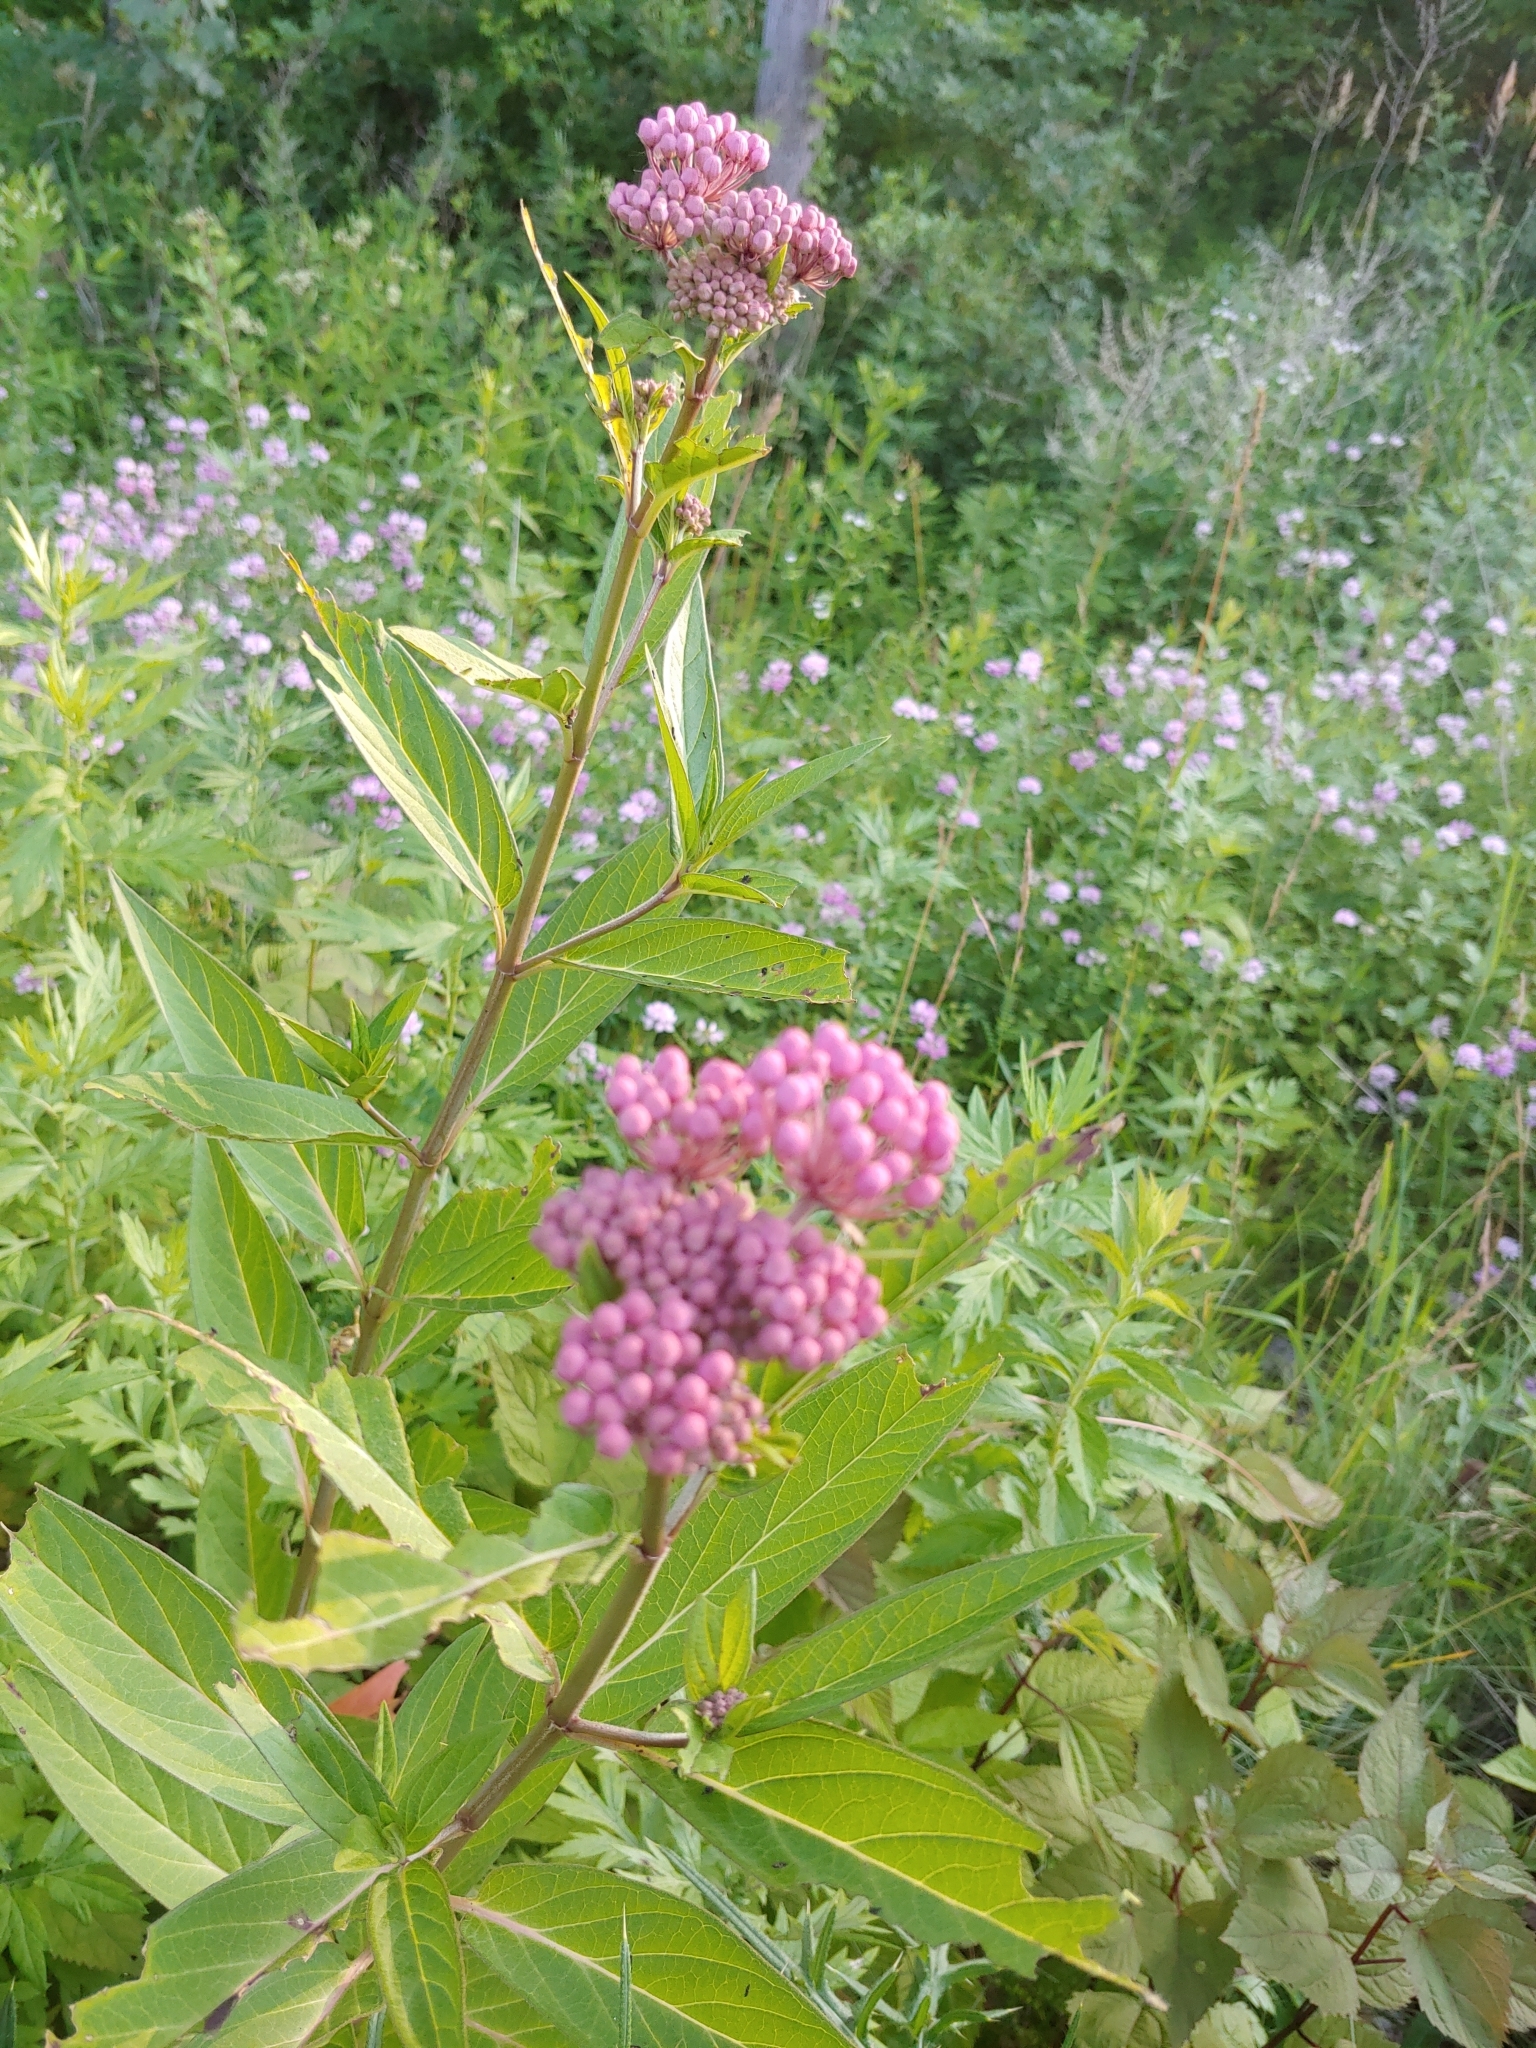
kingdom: Plantae
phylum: Tracheophyta
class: Magnoliopsida
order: Gentianales
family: Apocynaceae
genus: Asclepias
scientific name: Asclepias incarnata
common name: Swamp milkweed
